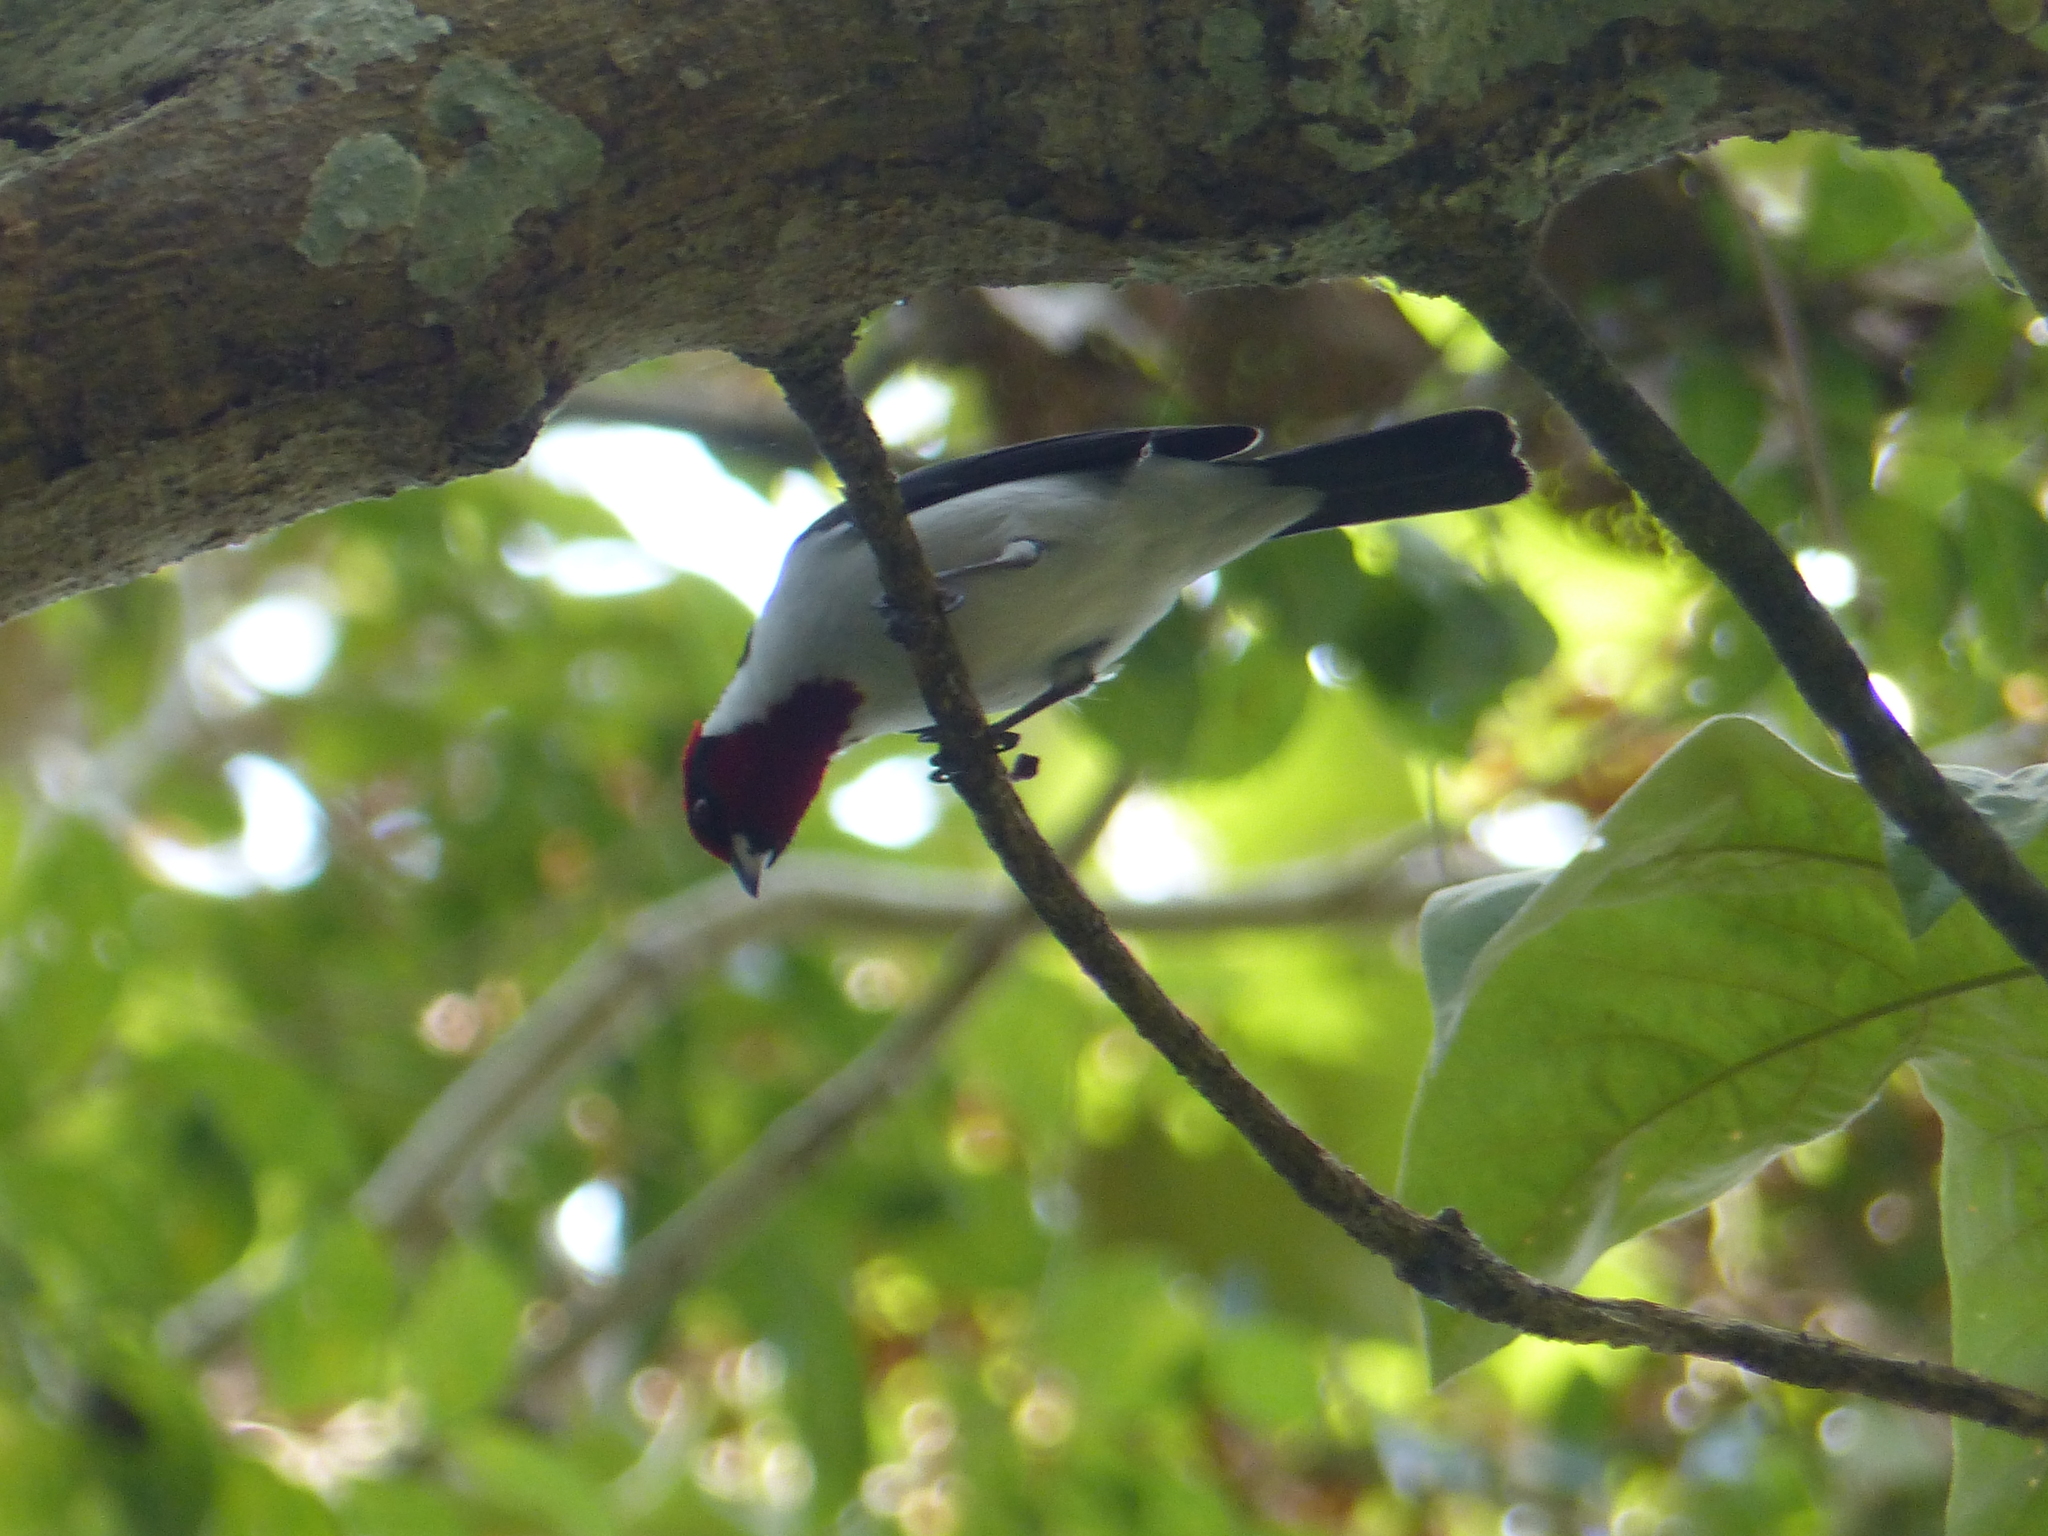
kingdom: Animalia
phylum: Chordata
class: Aves
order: Passeriformes
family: Thraupidae
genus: Paroaria
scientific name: Paroaria nigrogenis
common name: Masked cardinal
